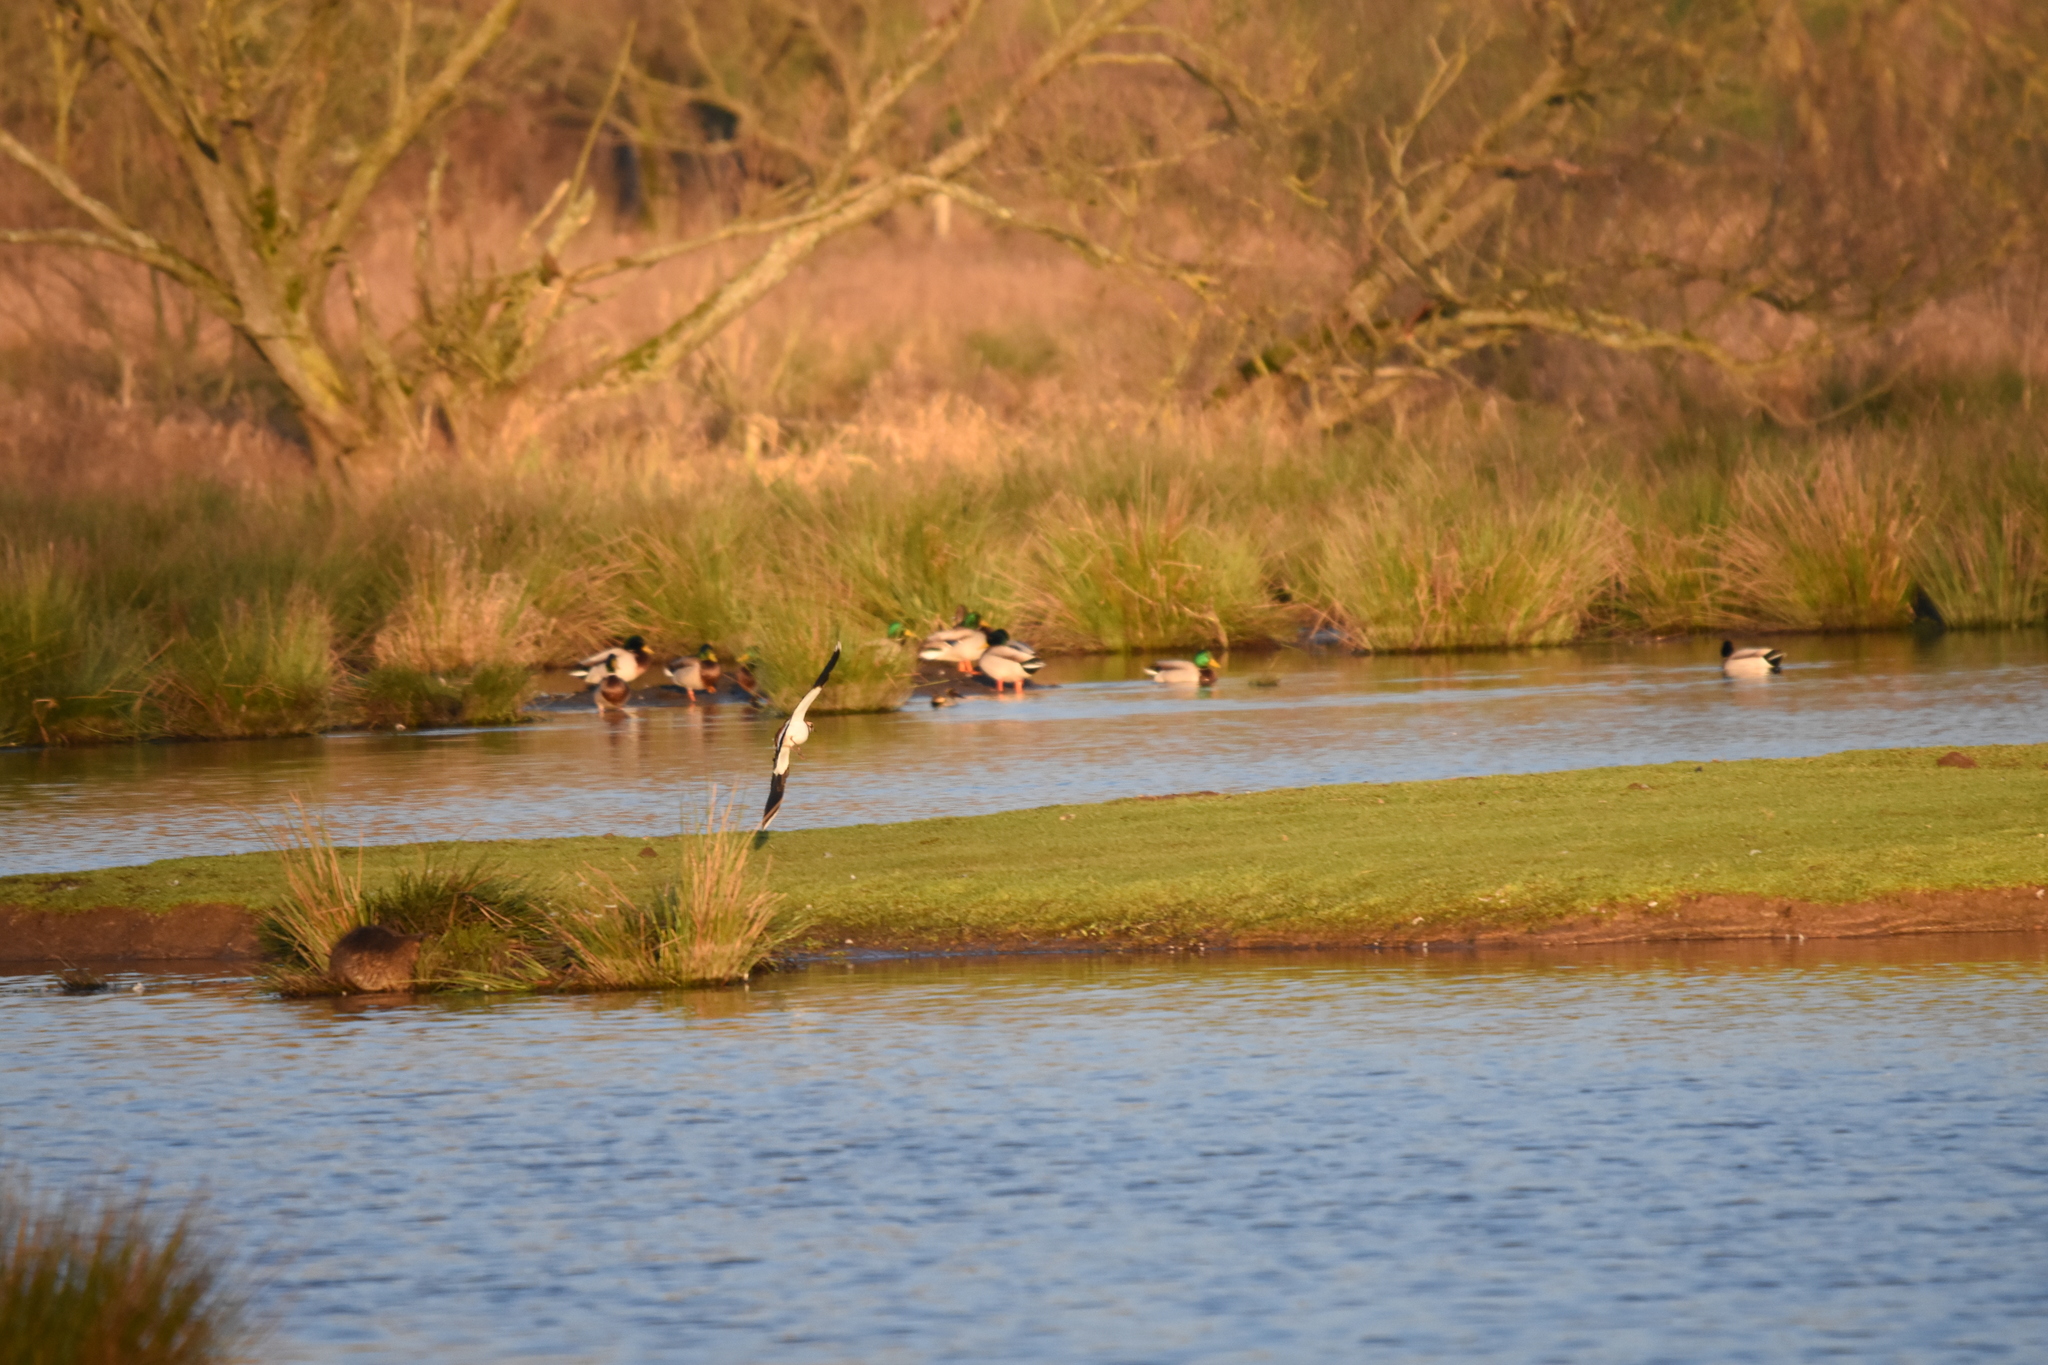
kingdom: Animalia
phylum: Chordata
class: Aves
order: Anseriformes
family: Anatidae
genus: Anas
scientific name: Anas platyrhynchos
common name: Mallard
